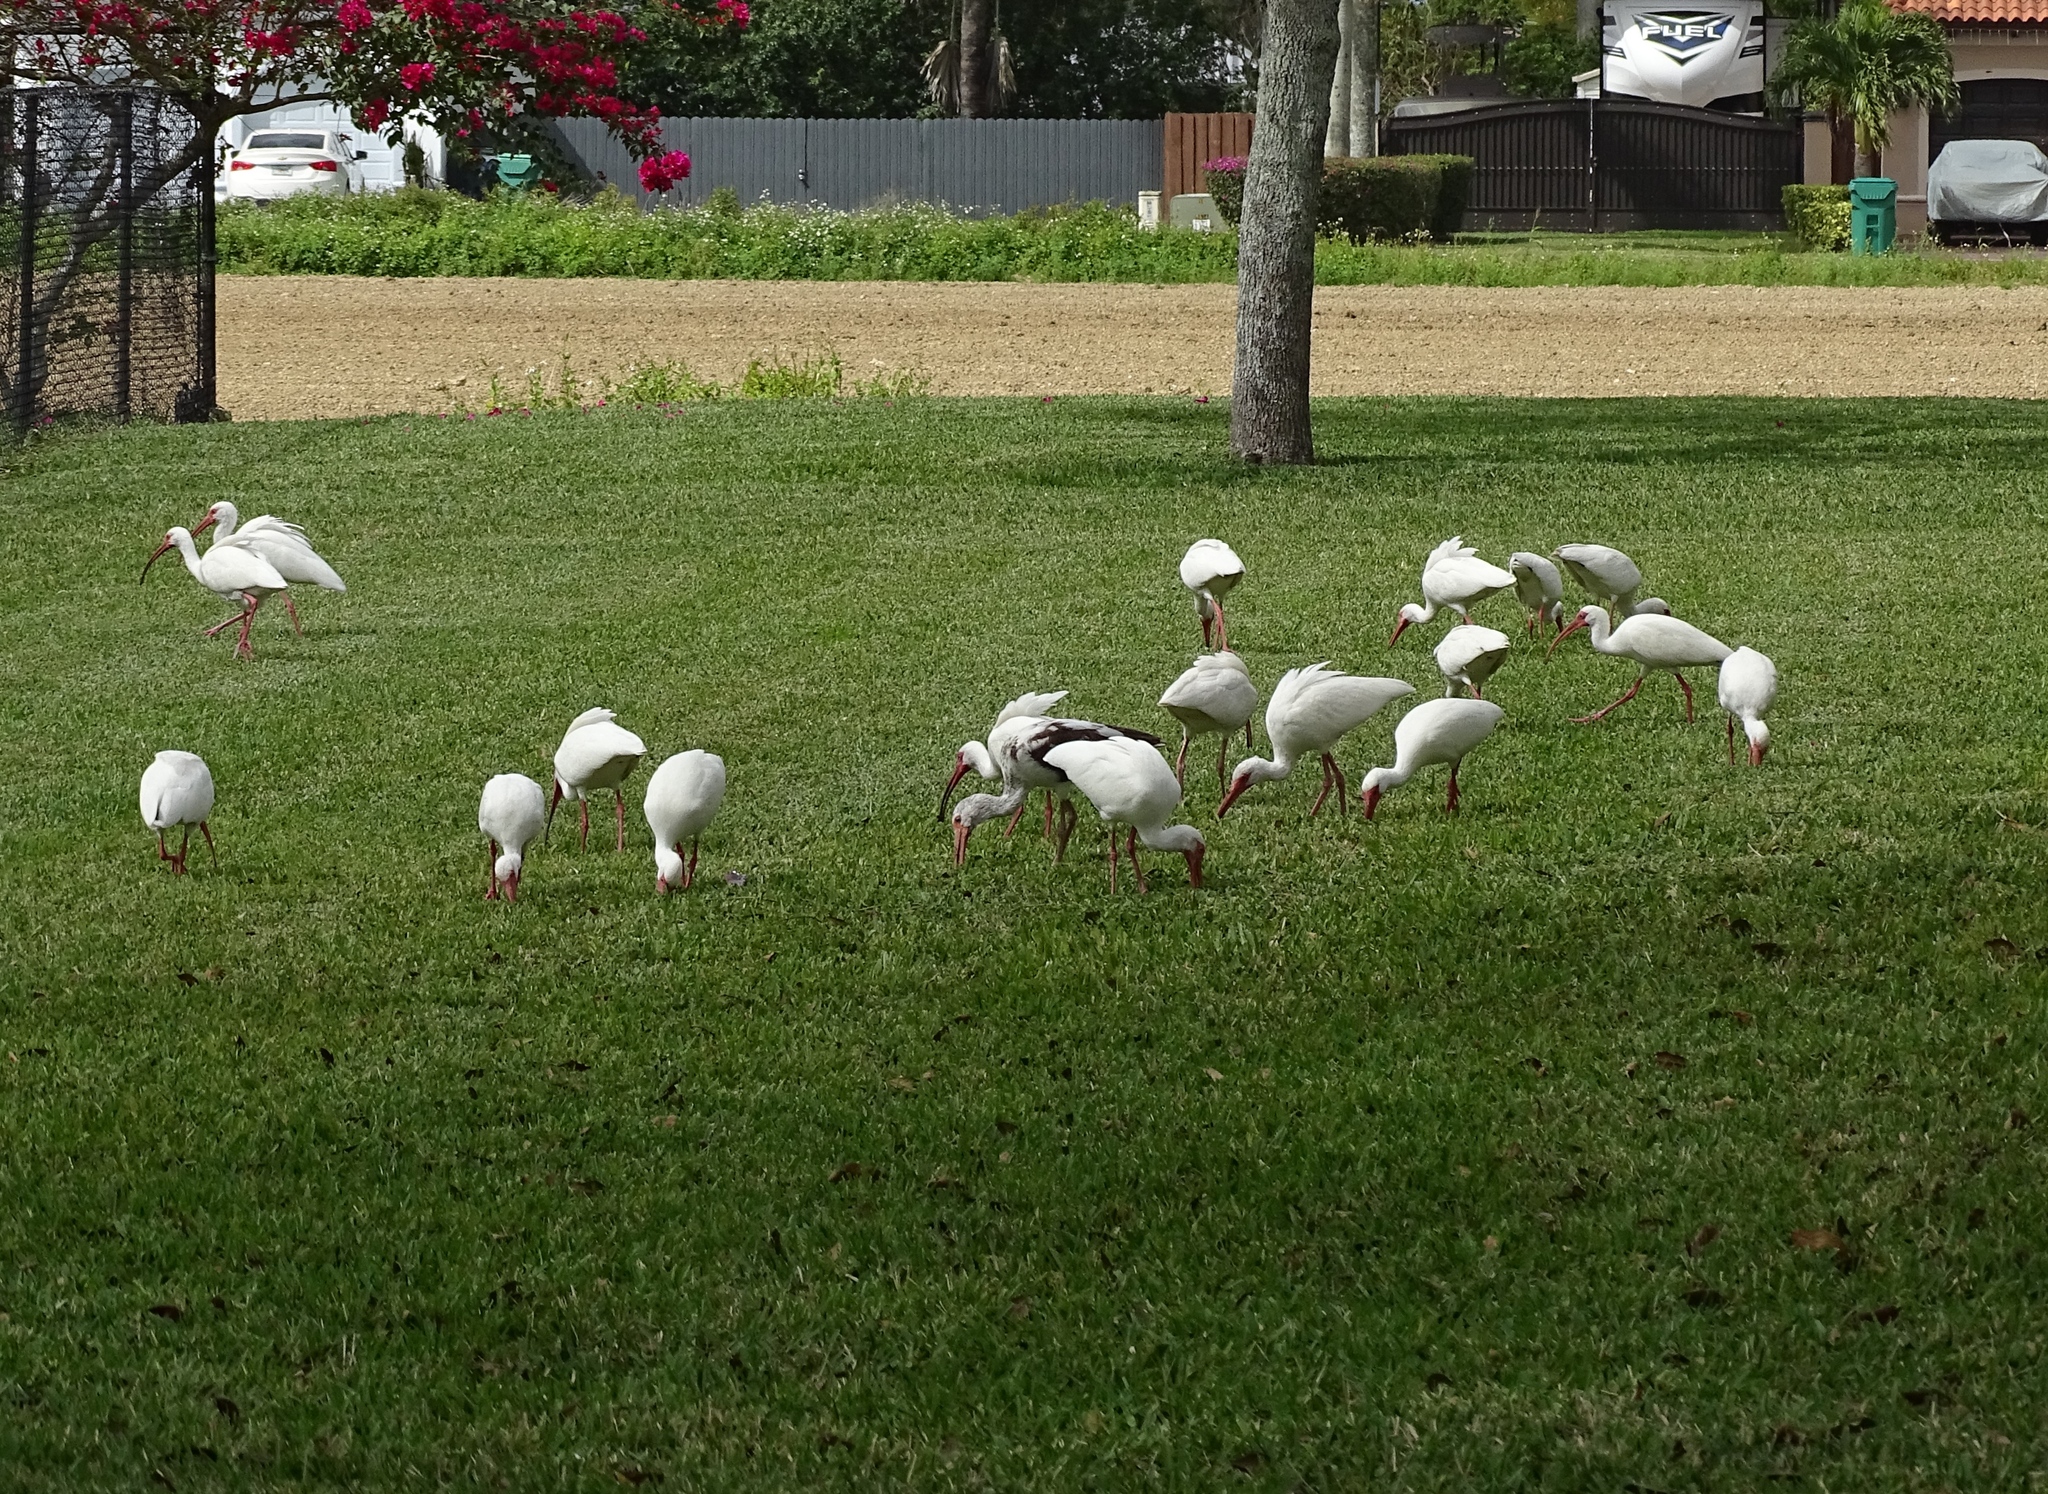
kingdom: Animalia
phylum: Chordata
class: Aves
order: Pelecaniformes
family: Threskiornithidae
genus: Eudocimus
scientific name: Eudocimus albus
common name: White ibis
